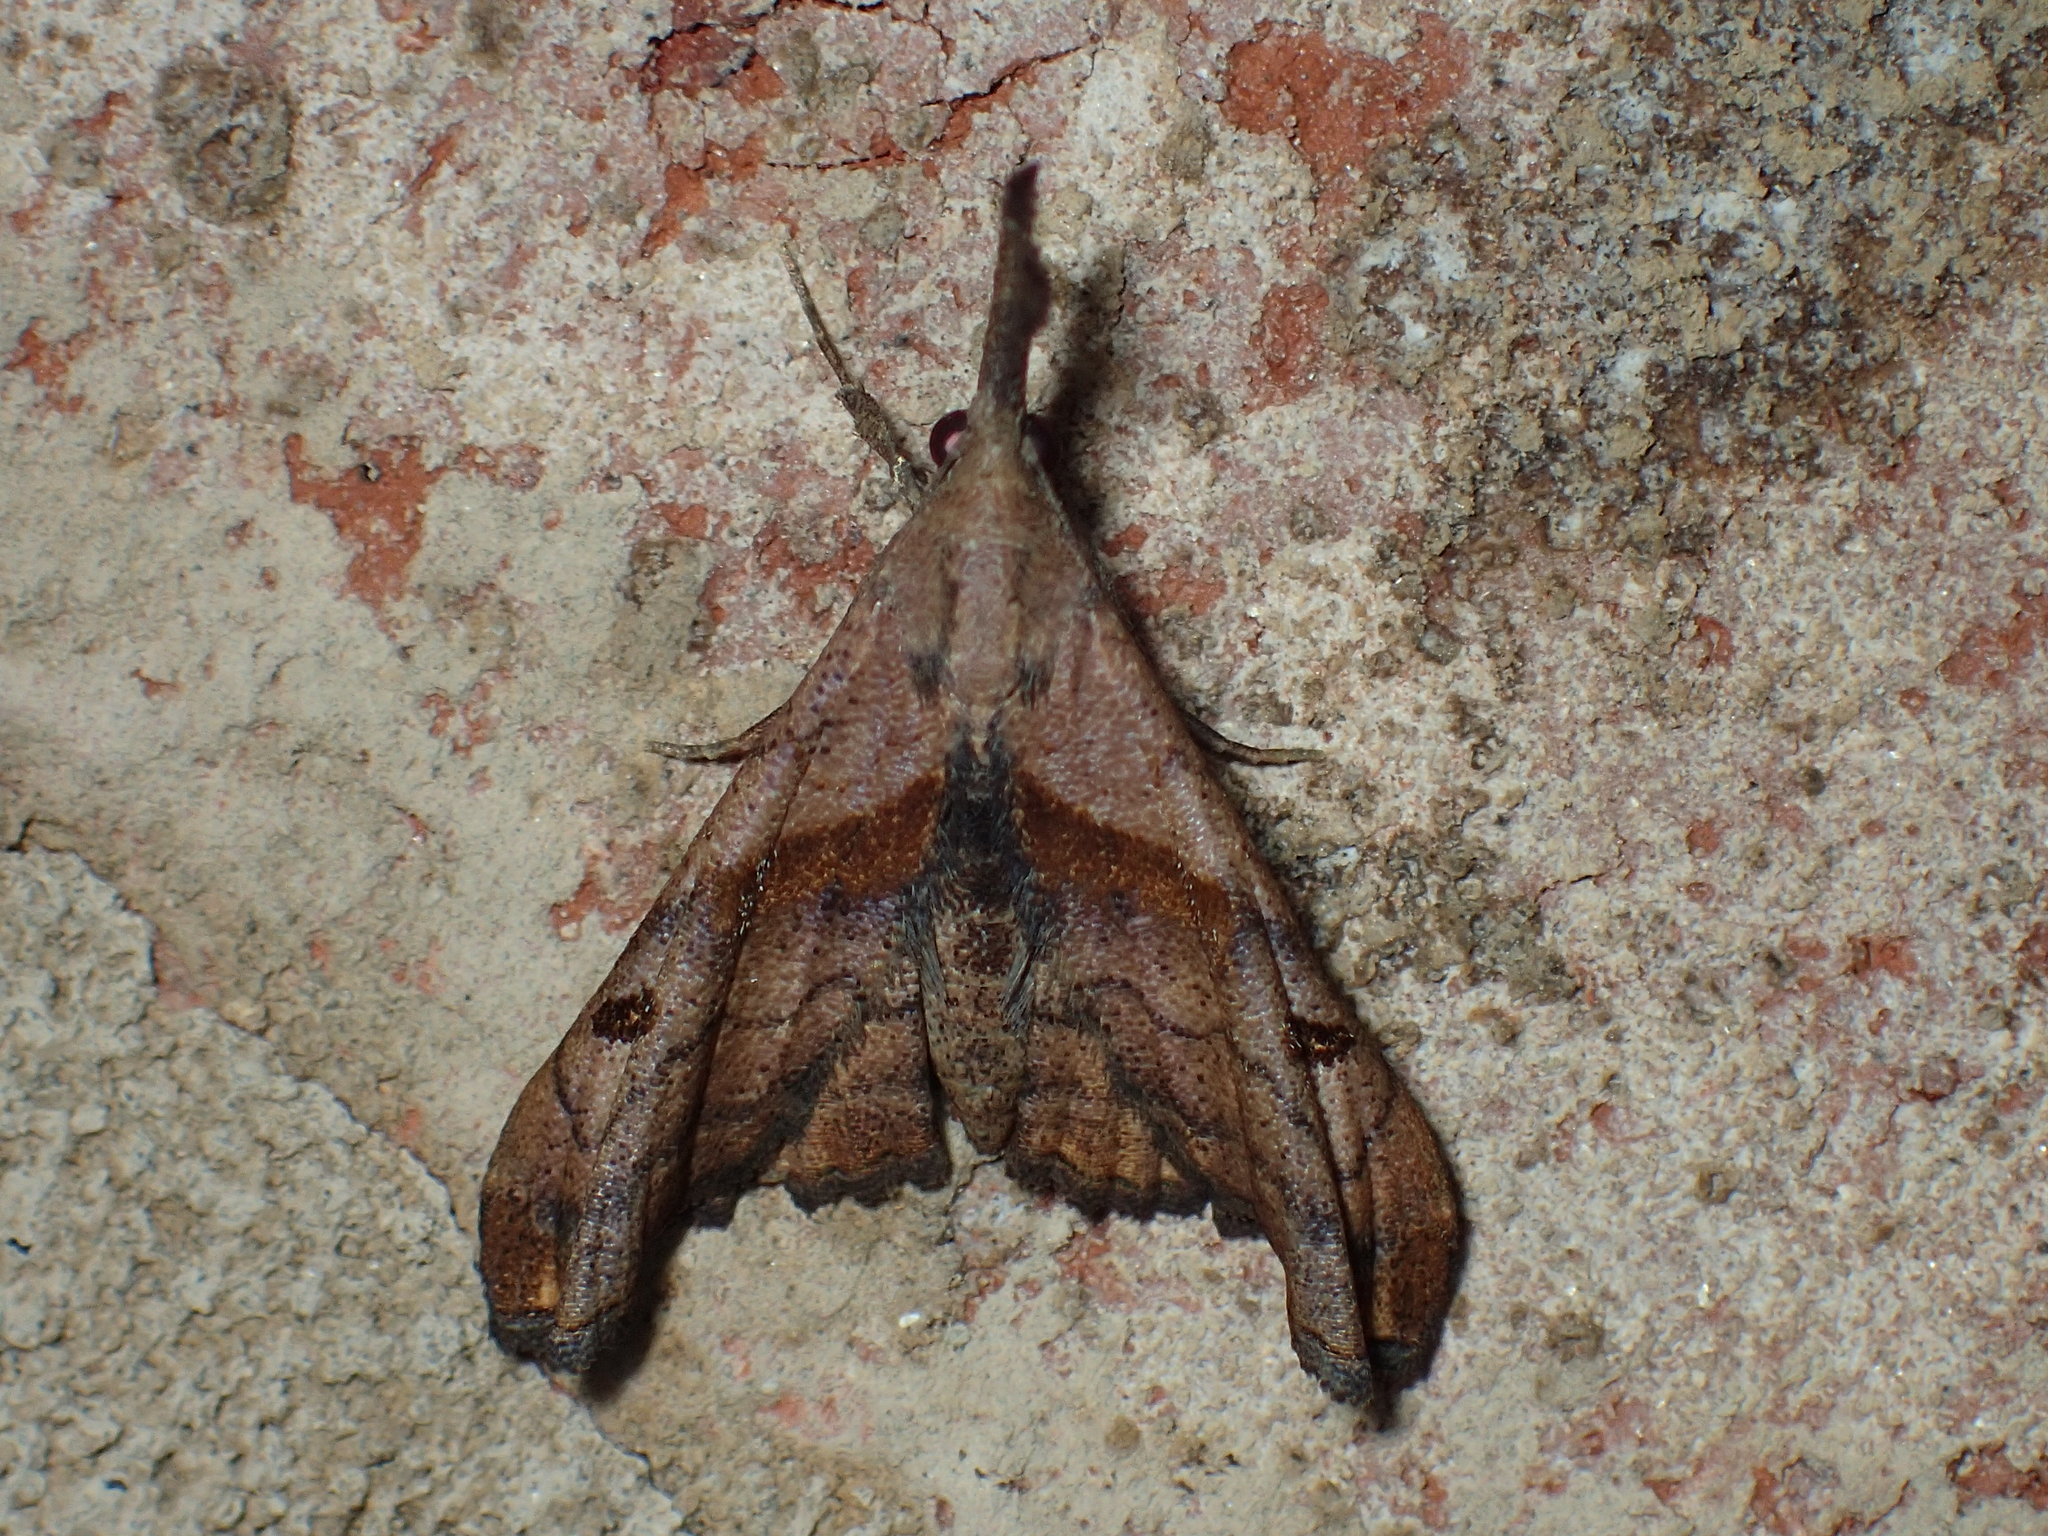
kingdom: Animalia
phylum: Arthropoda
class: Insecta
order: Lepidoptera
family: Erebidae
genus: Palthis
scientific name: Palthis angulalis
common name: Dark-spotted palthis moth
